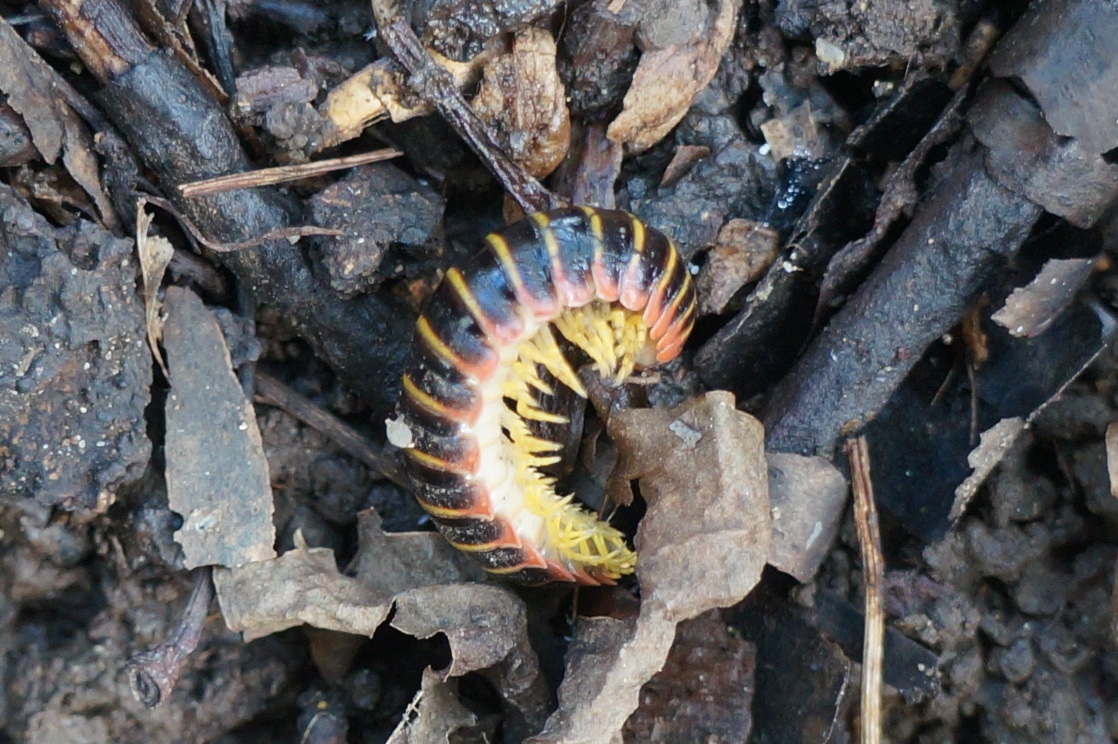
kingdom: Animalia
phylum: Arthropoda
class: Diplopoda
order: Polydesmida
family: Xystodesmidae
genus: Apheloria
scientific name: Apheloria virginiensis
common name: Black-and-gold flat millipede
